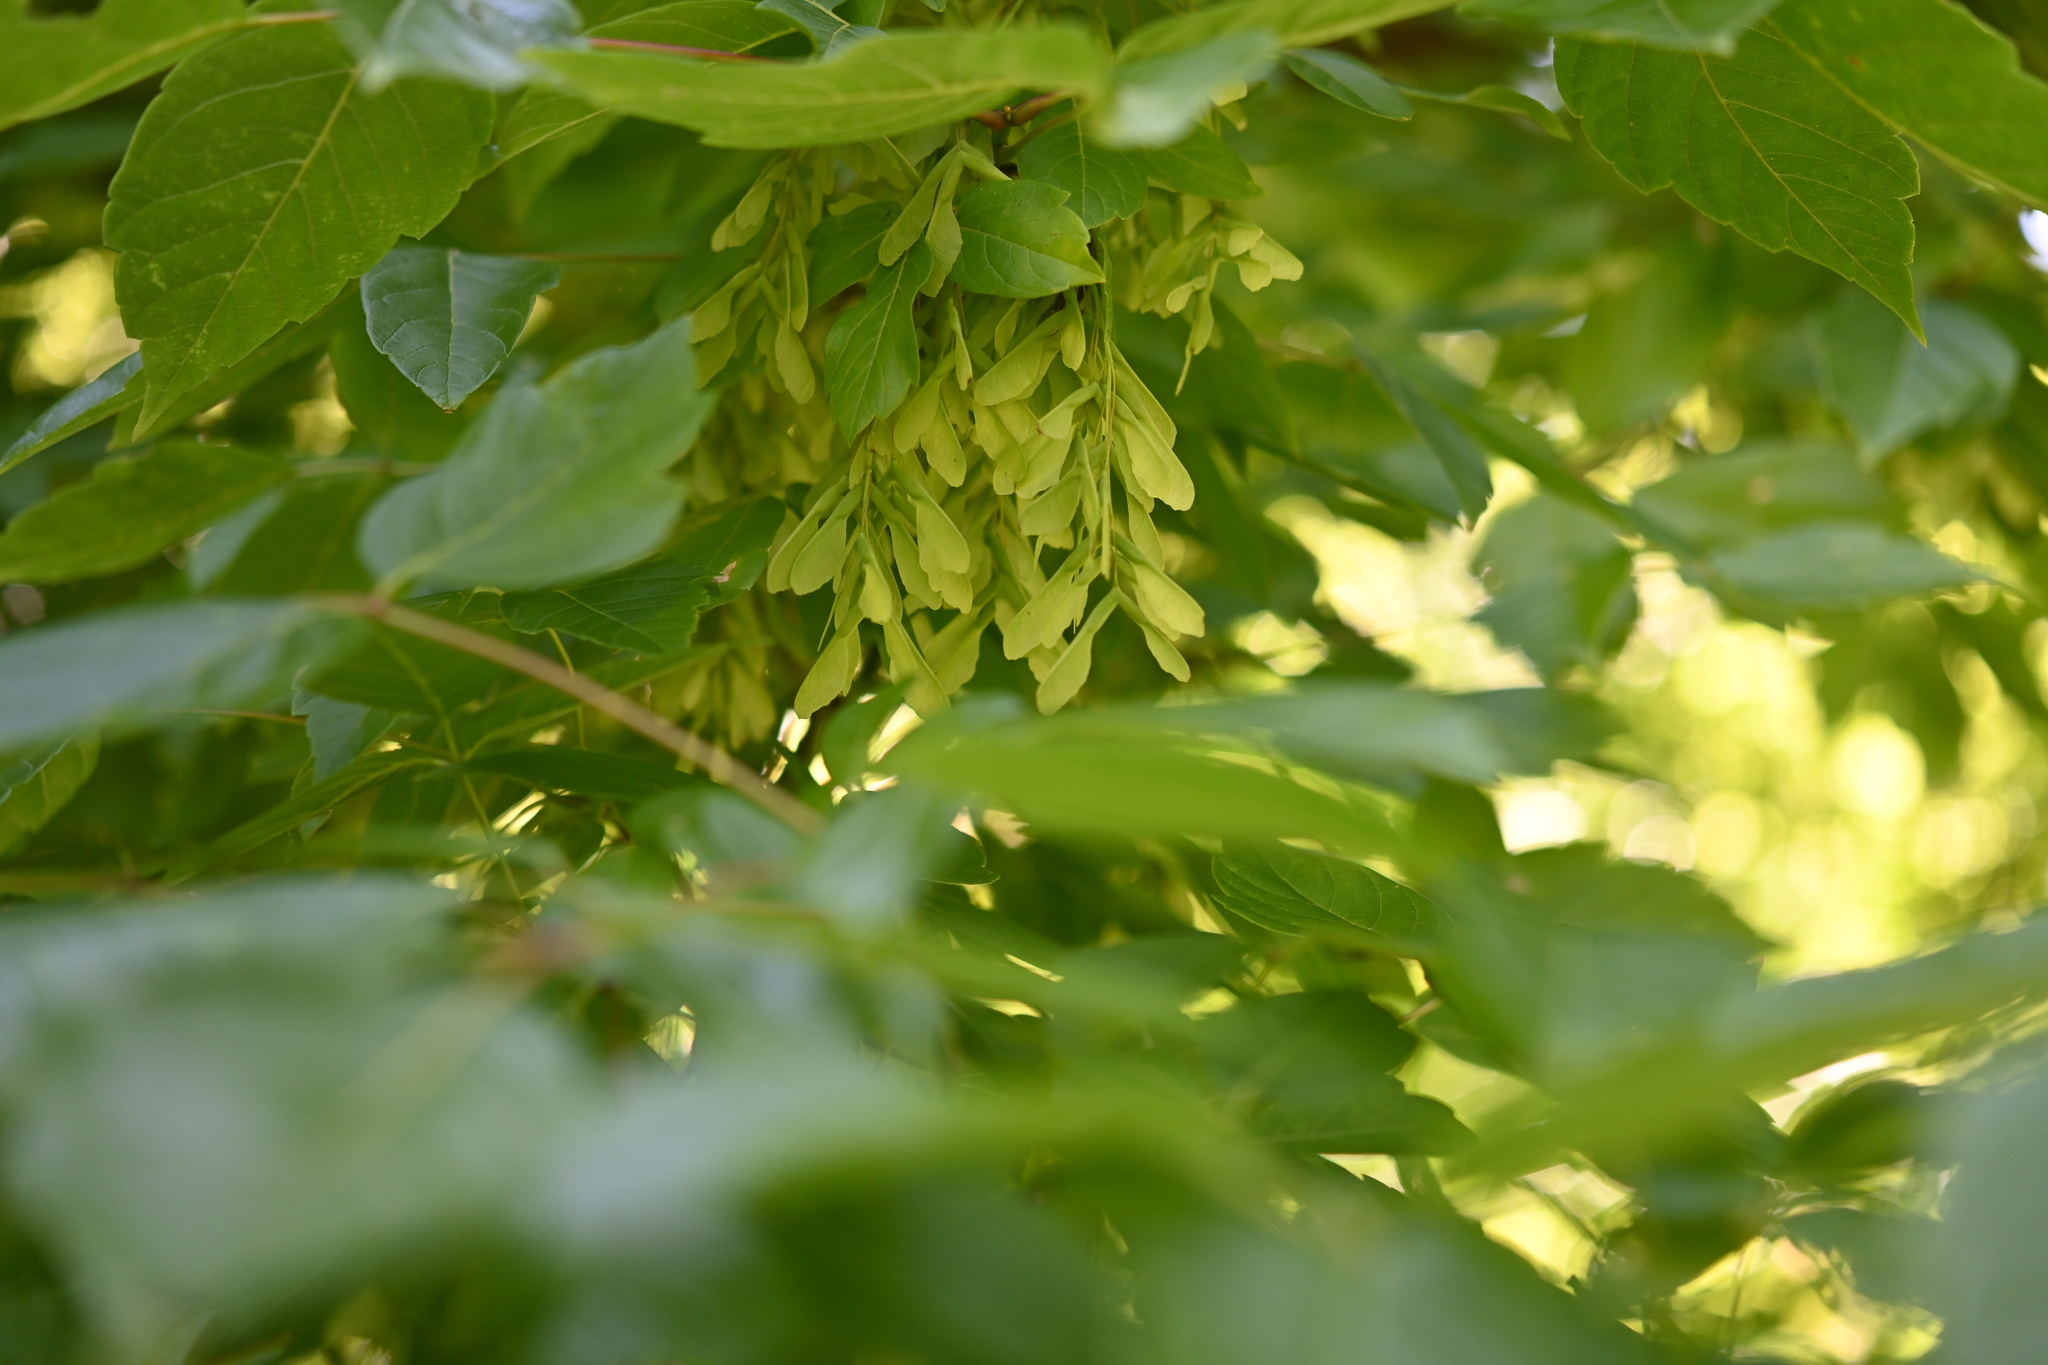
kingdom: Plantae
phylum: Tracheophyta
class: Magnoliopsida
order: Sapindales
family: Sapindaceae
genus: Acer
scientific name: Acer negundo
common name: Ashleaf maple
